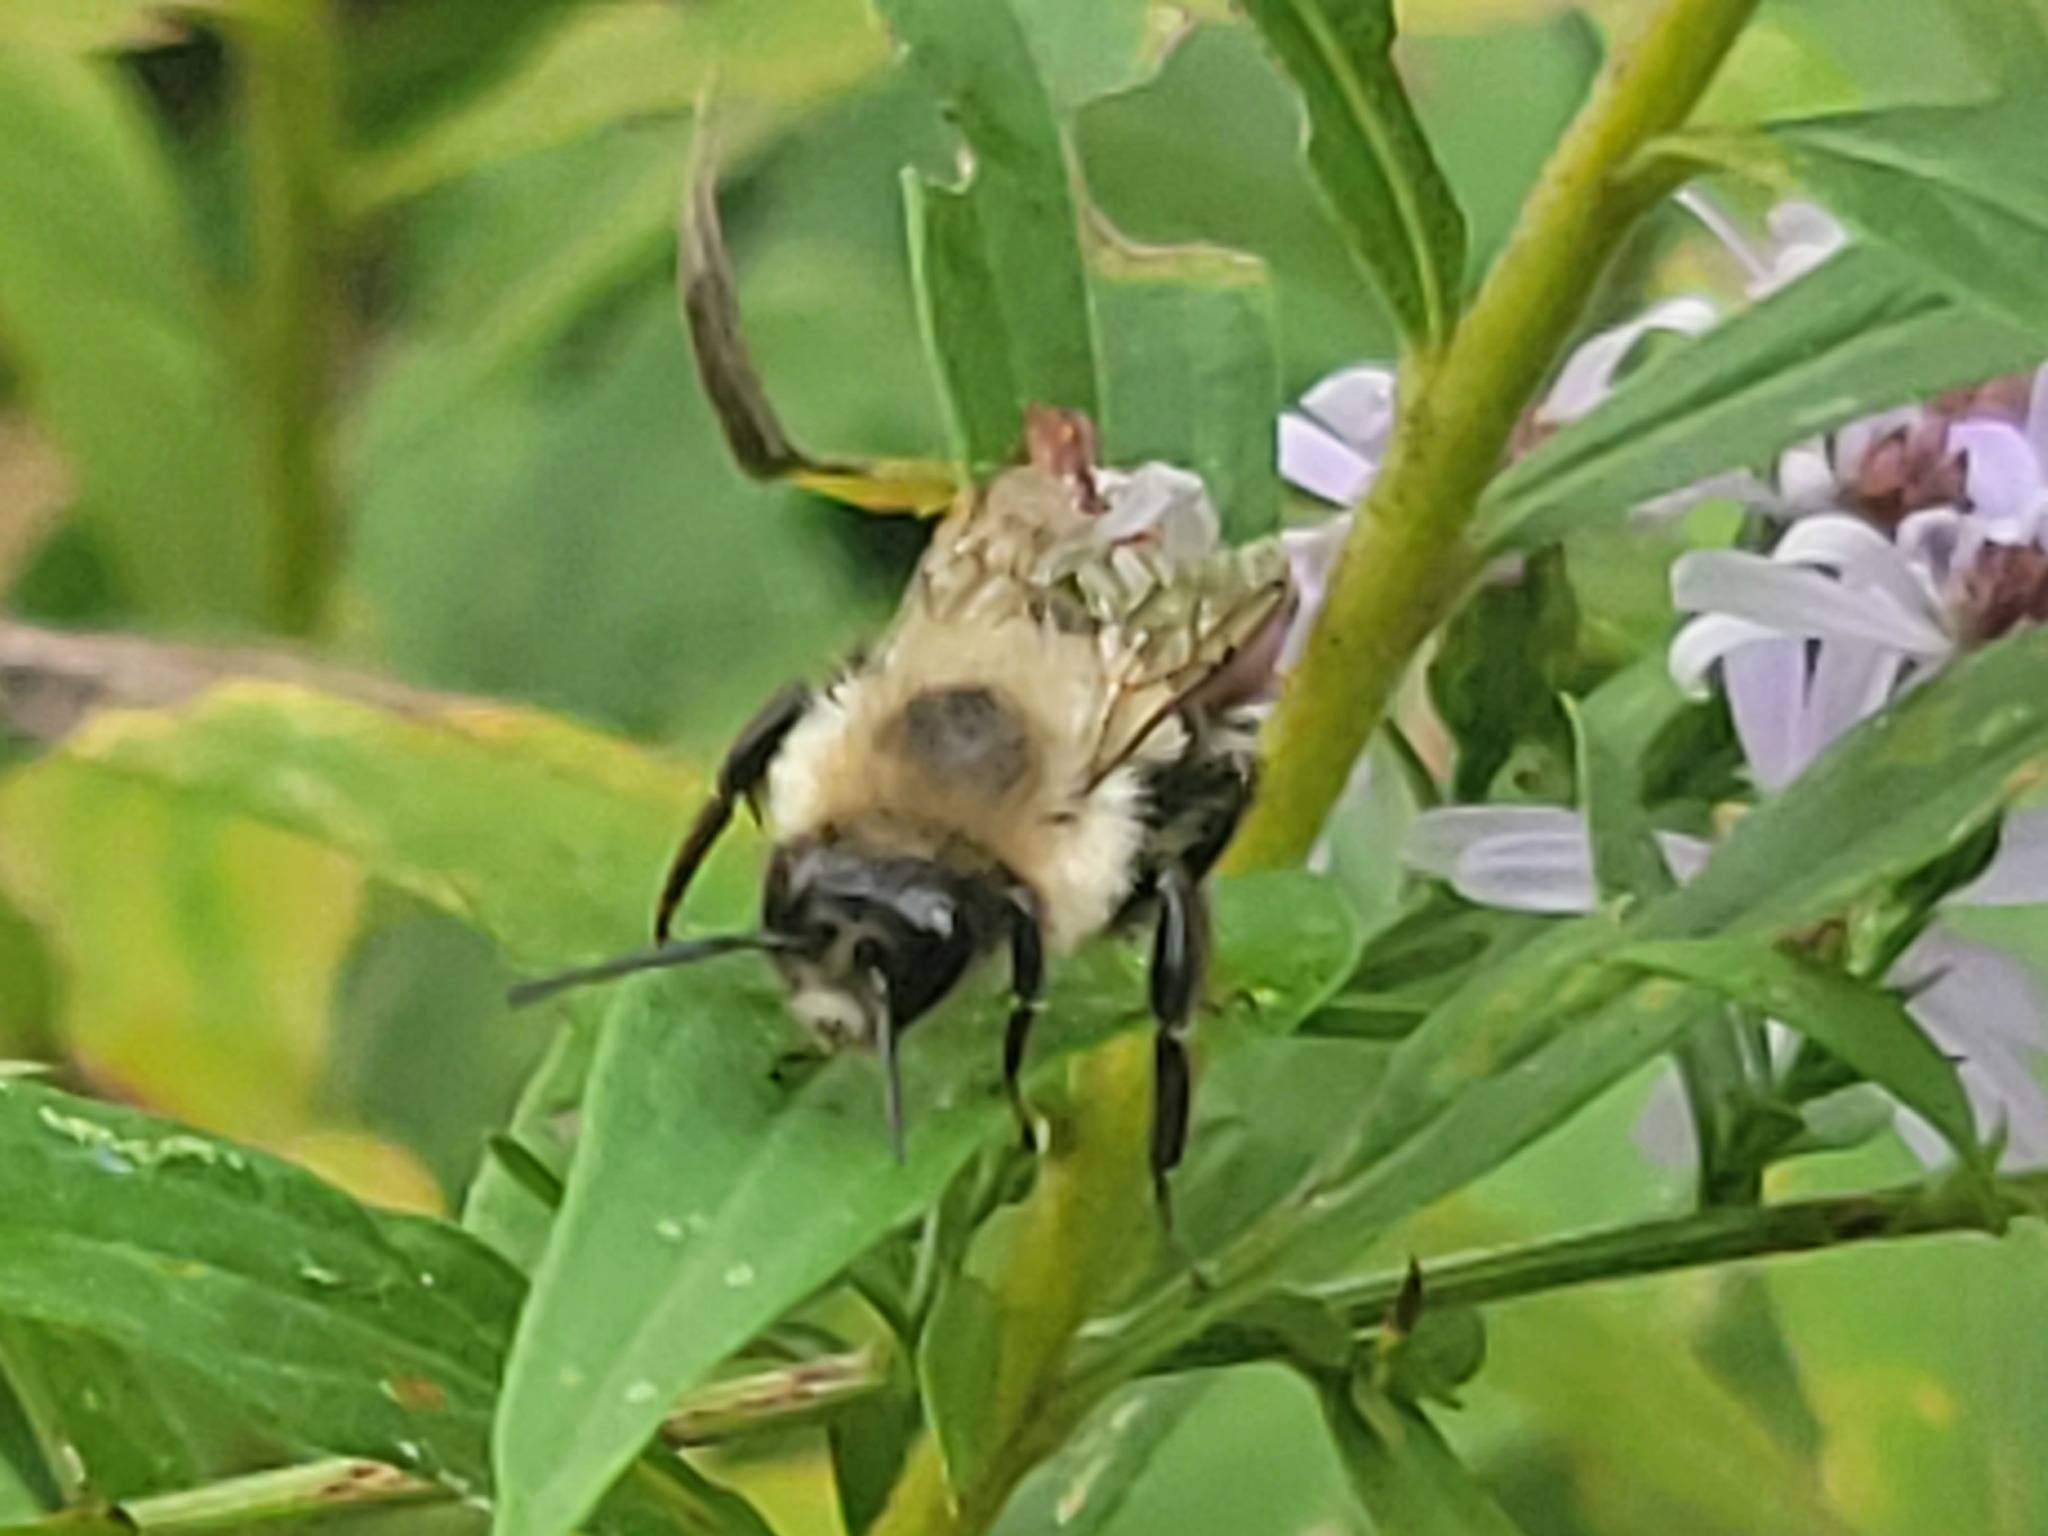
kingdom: Animalia
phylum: Arthropoda
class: Insecta
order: Hymenoptera
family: Apidae
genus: Bombus
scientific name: Bombus impatiens
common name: Common eastern bumble bee
